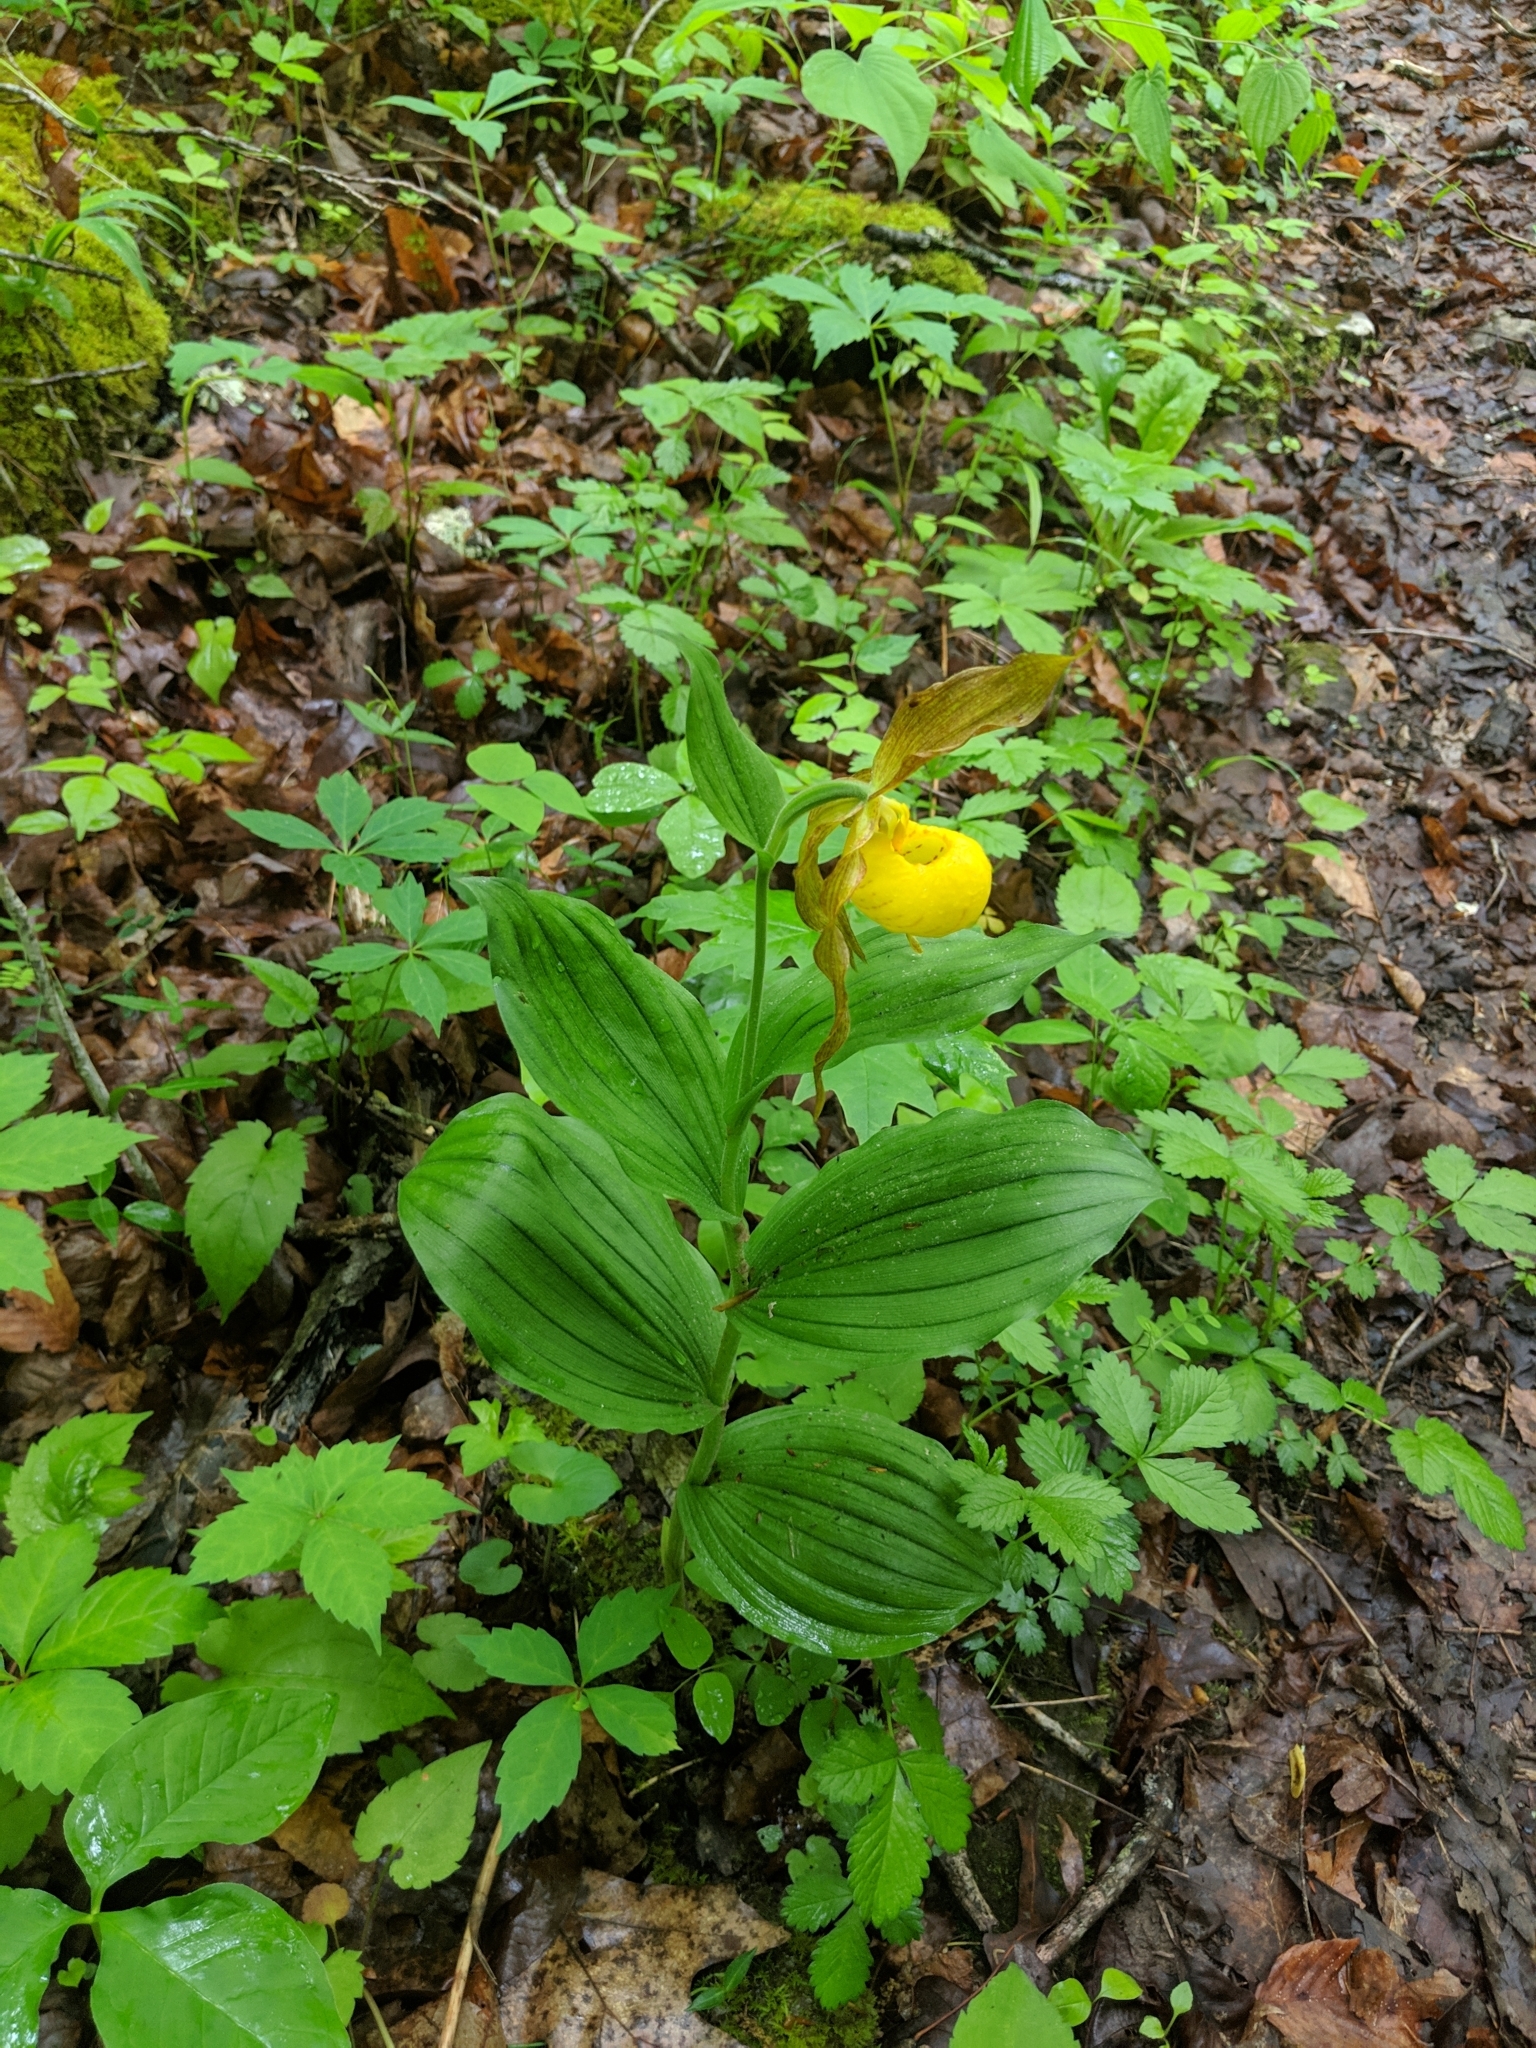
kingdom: Plantae
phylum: Tracheophyta
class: Liliopsida
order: Asparagales
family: Orchidaceae
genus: Cypripedium
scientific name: Cypripedium parviflorum
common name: American yellow lady's-slipper
